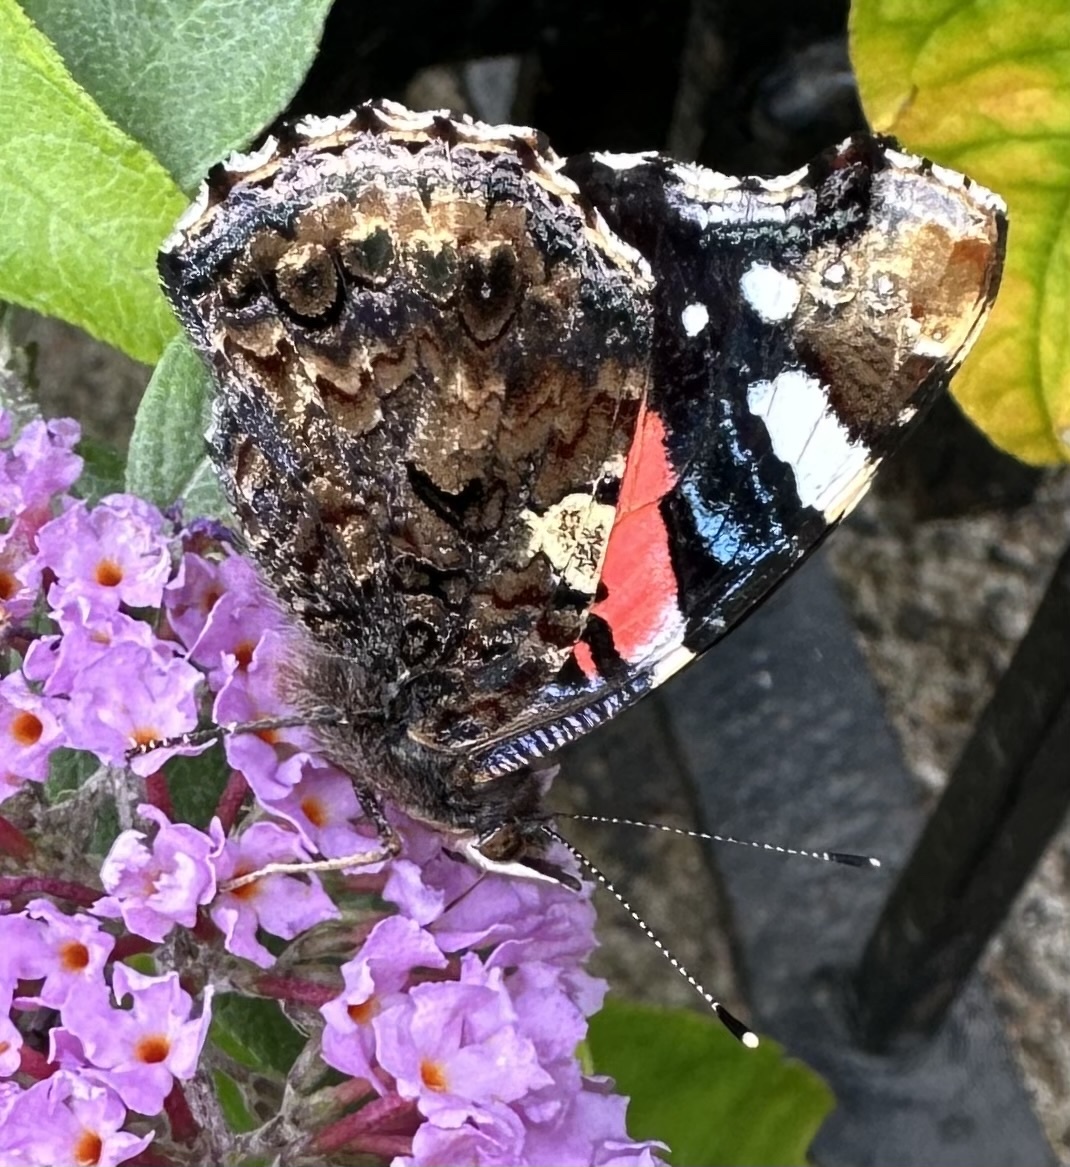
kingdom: Animalia
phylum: Arthropoda
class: Insecta
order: Lepidoptera
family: Nymphalidae
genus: Vanessa
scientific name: Vanessa atalanta
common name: Red admiral
